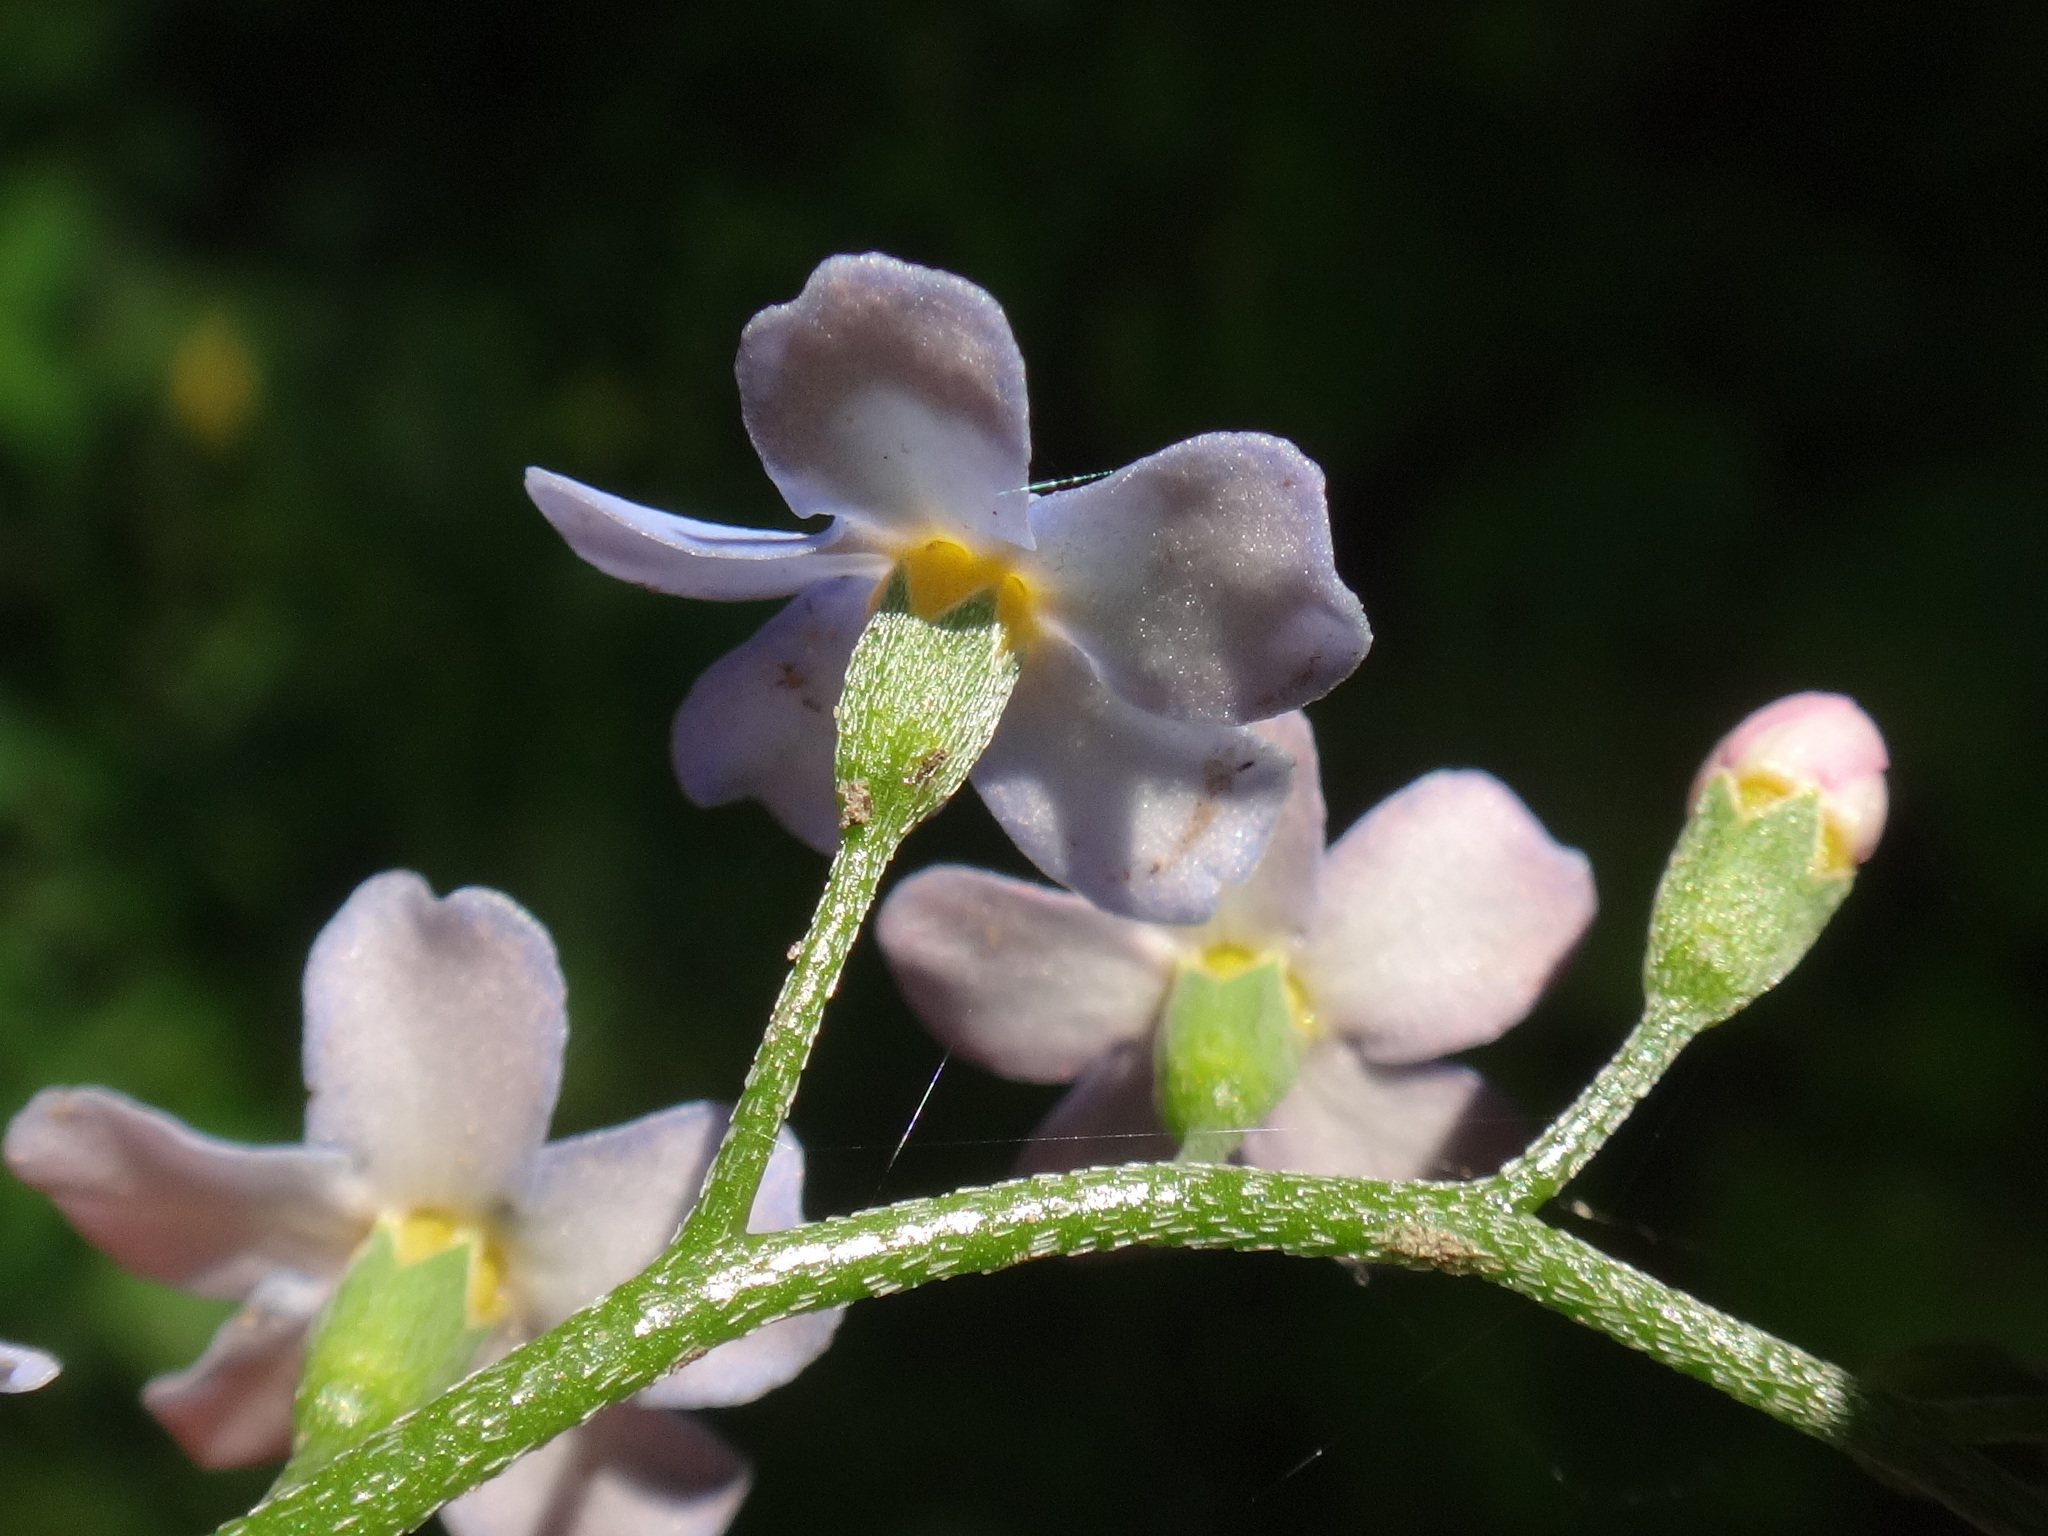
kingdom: Plantae
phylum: Tracheophyta
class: Magnoliopsida
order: Boraginales
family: Boraginaceae
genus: Myosotis
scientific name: Myosotis scorpioides
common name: Water forget-me-not
